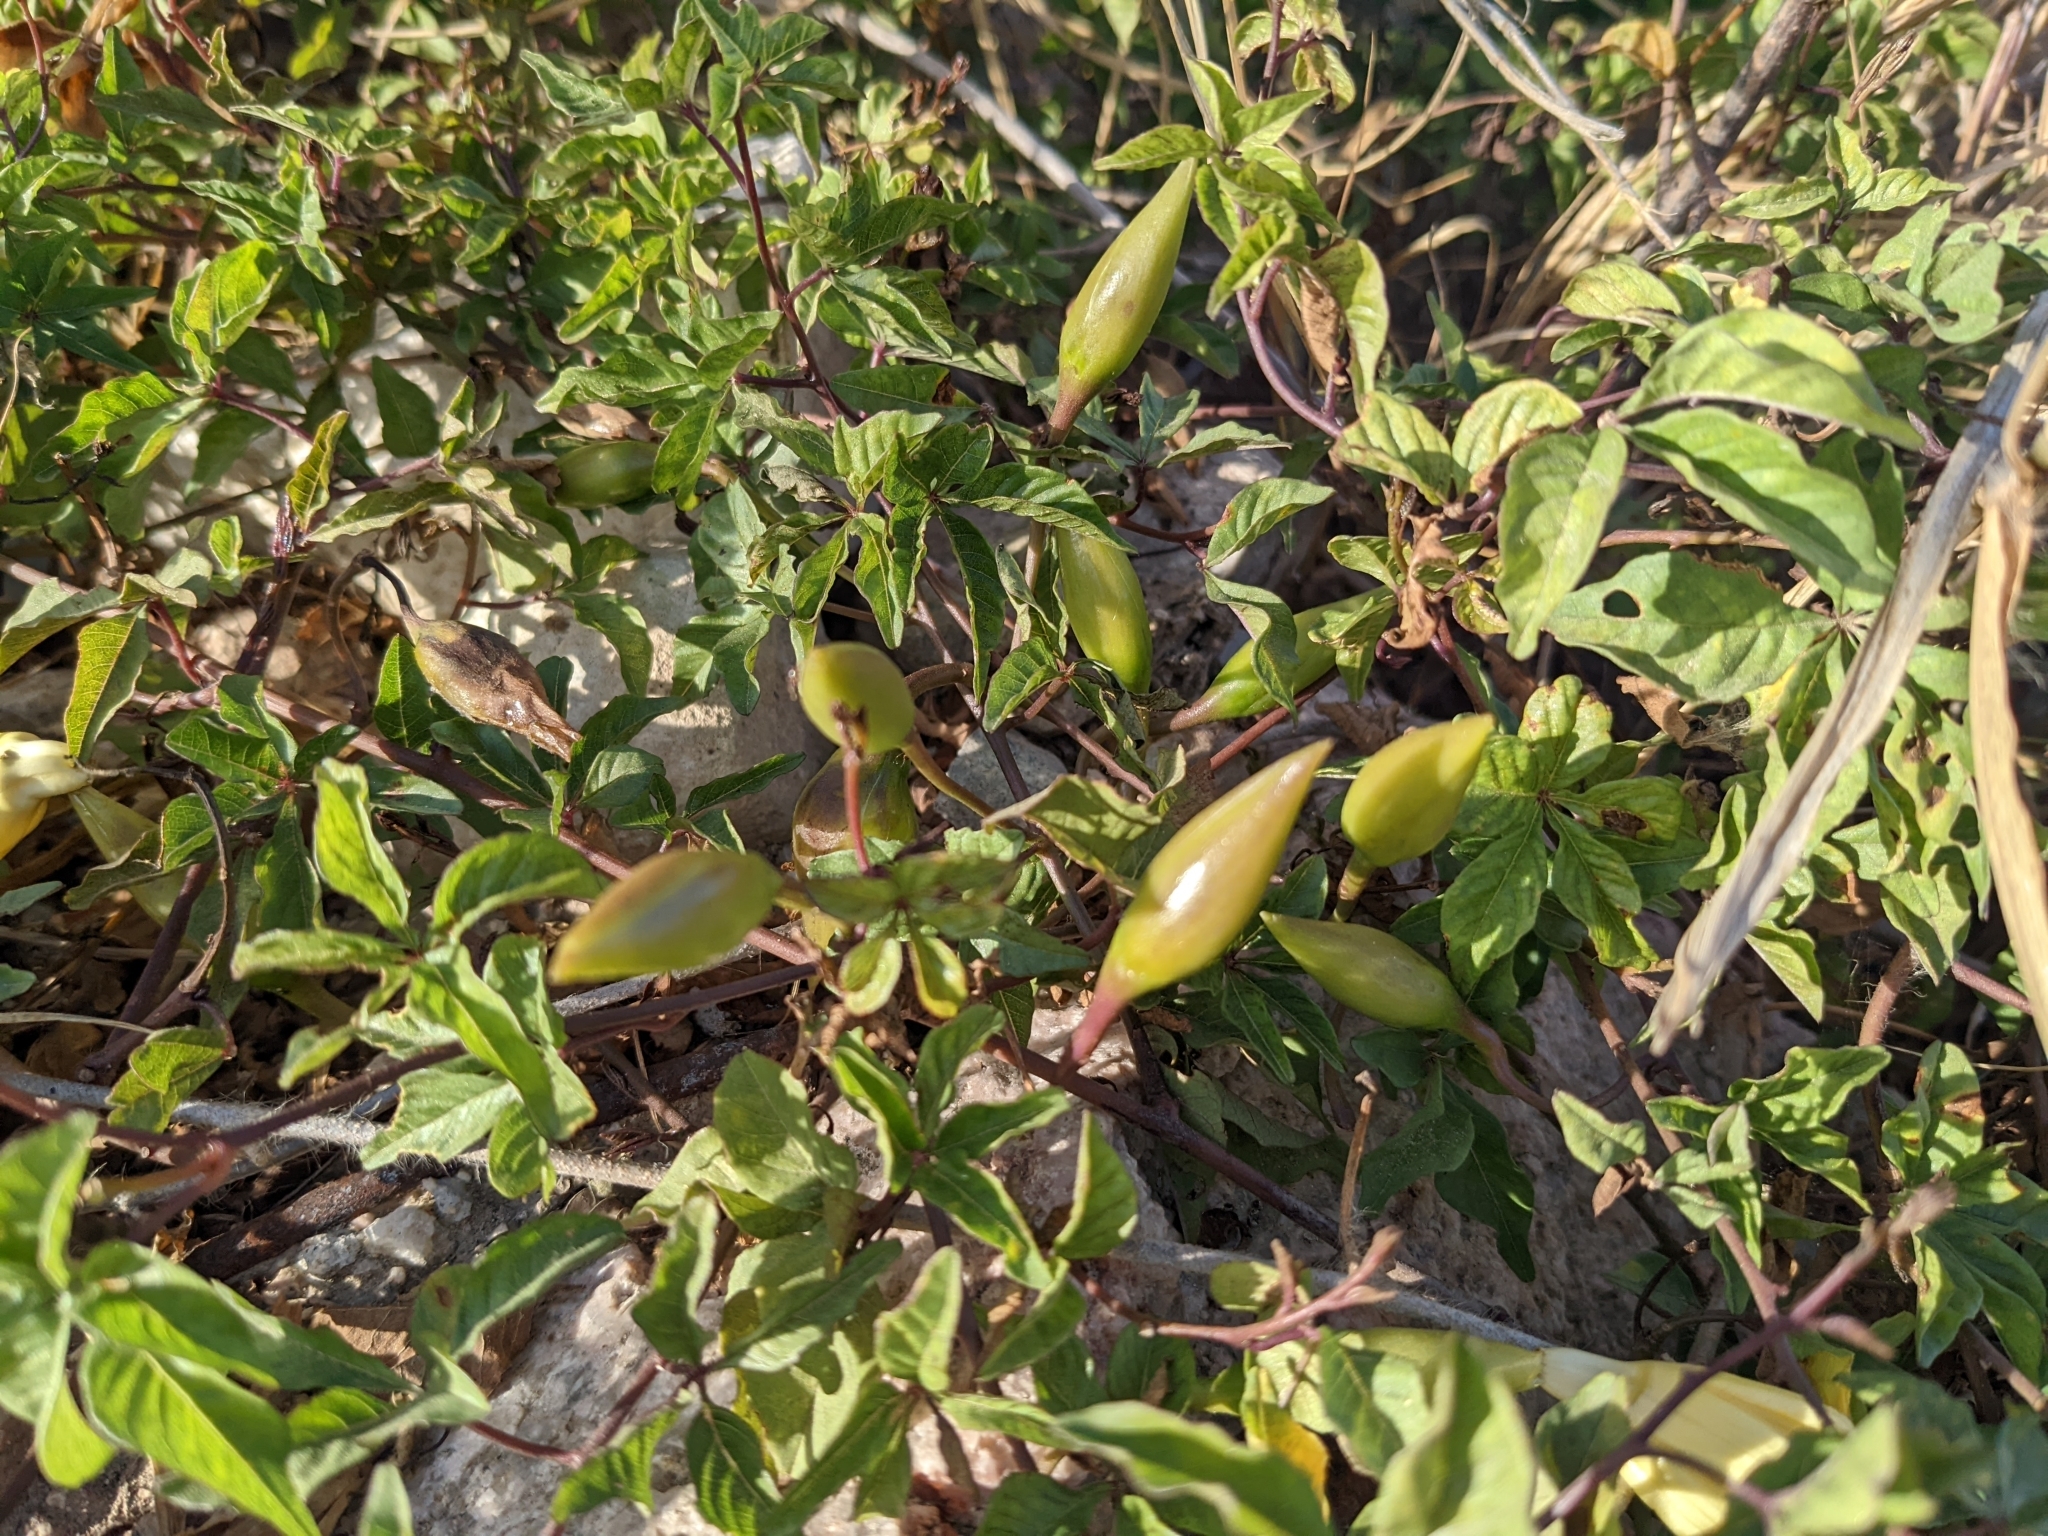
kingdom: Plantae
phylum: Tracheophyta
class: Magnoliopsida
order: Solanales
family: Convolvulaceae
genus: Distimake
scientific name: Distimake aureus
